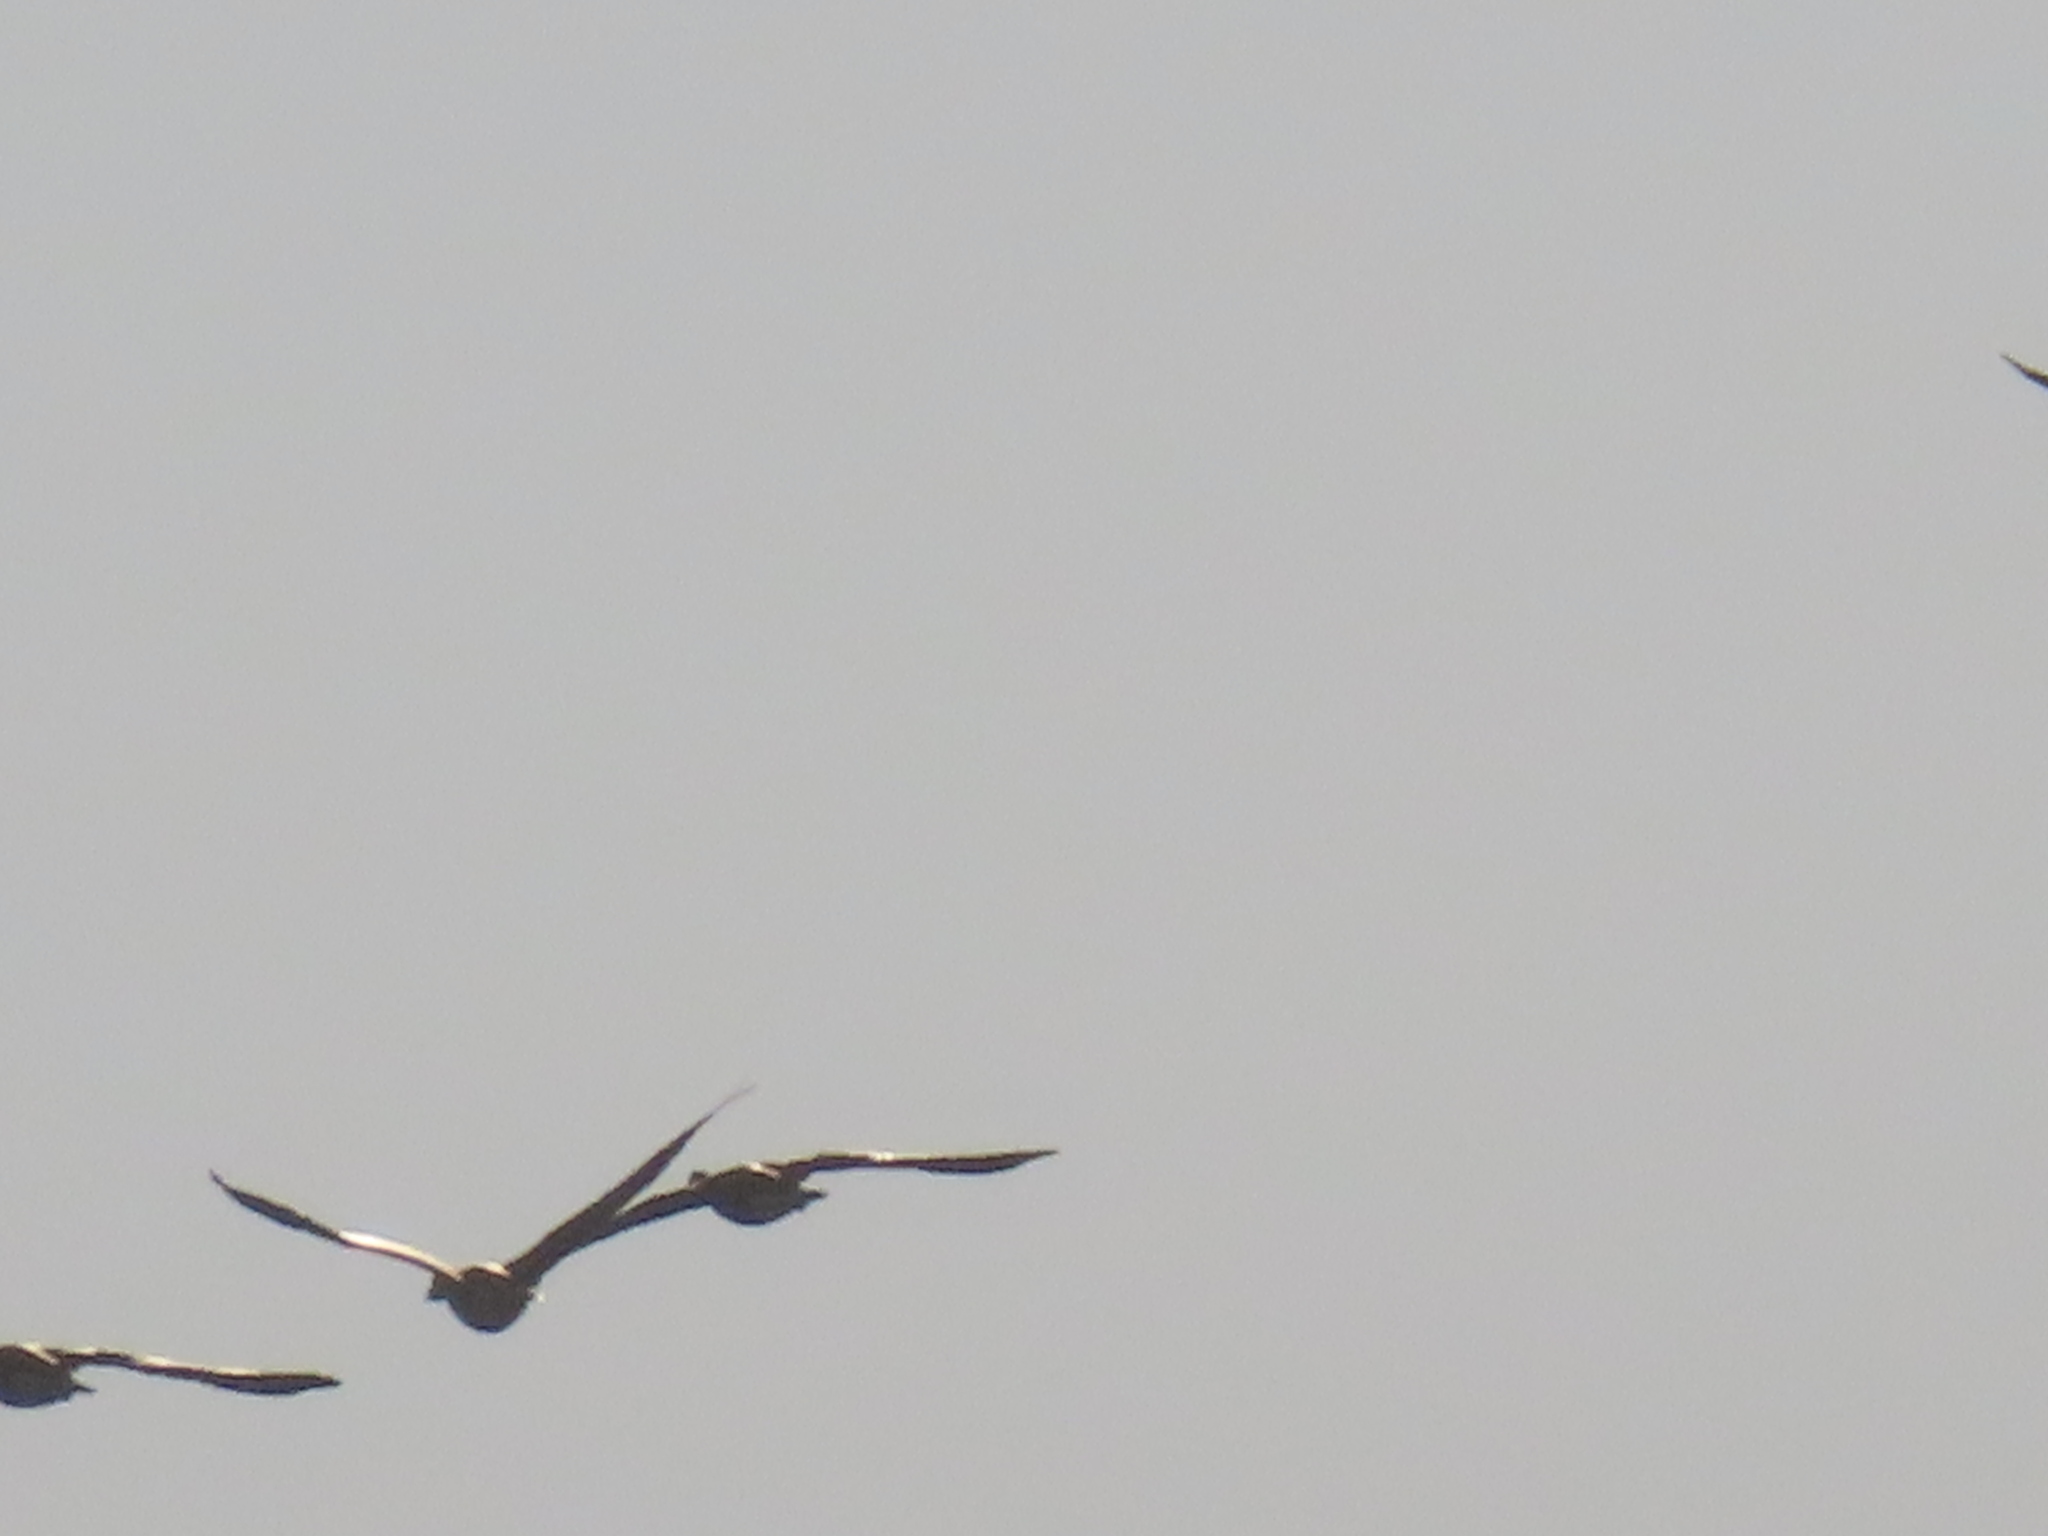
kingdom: Animalia
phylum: Chordata
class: Aves
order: Anseriformes
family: Anatidae
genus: Anser
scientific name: Anser caerulescens
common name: Snow goose
